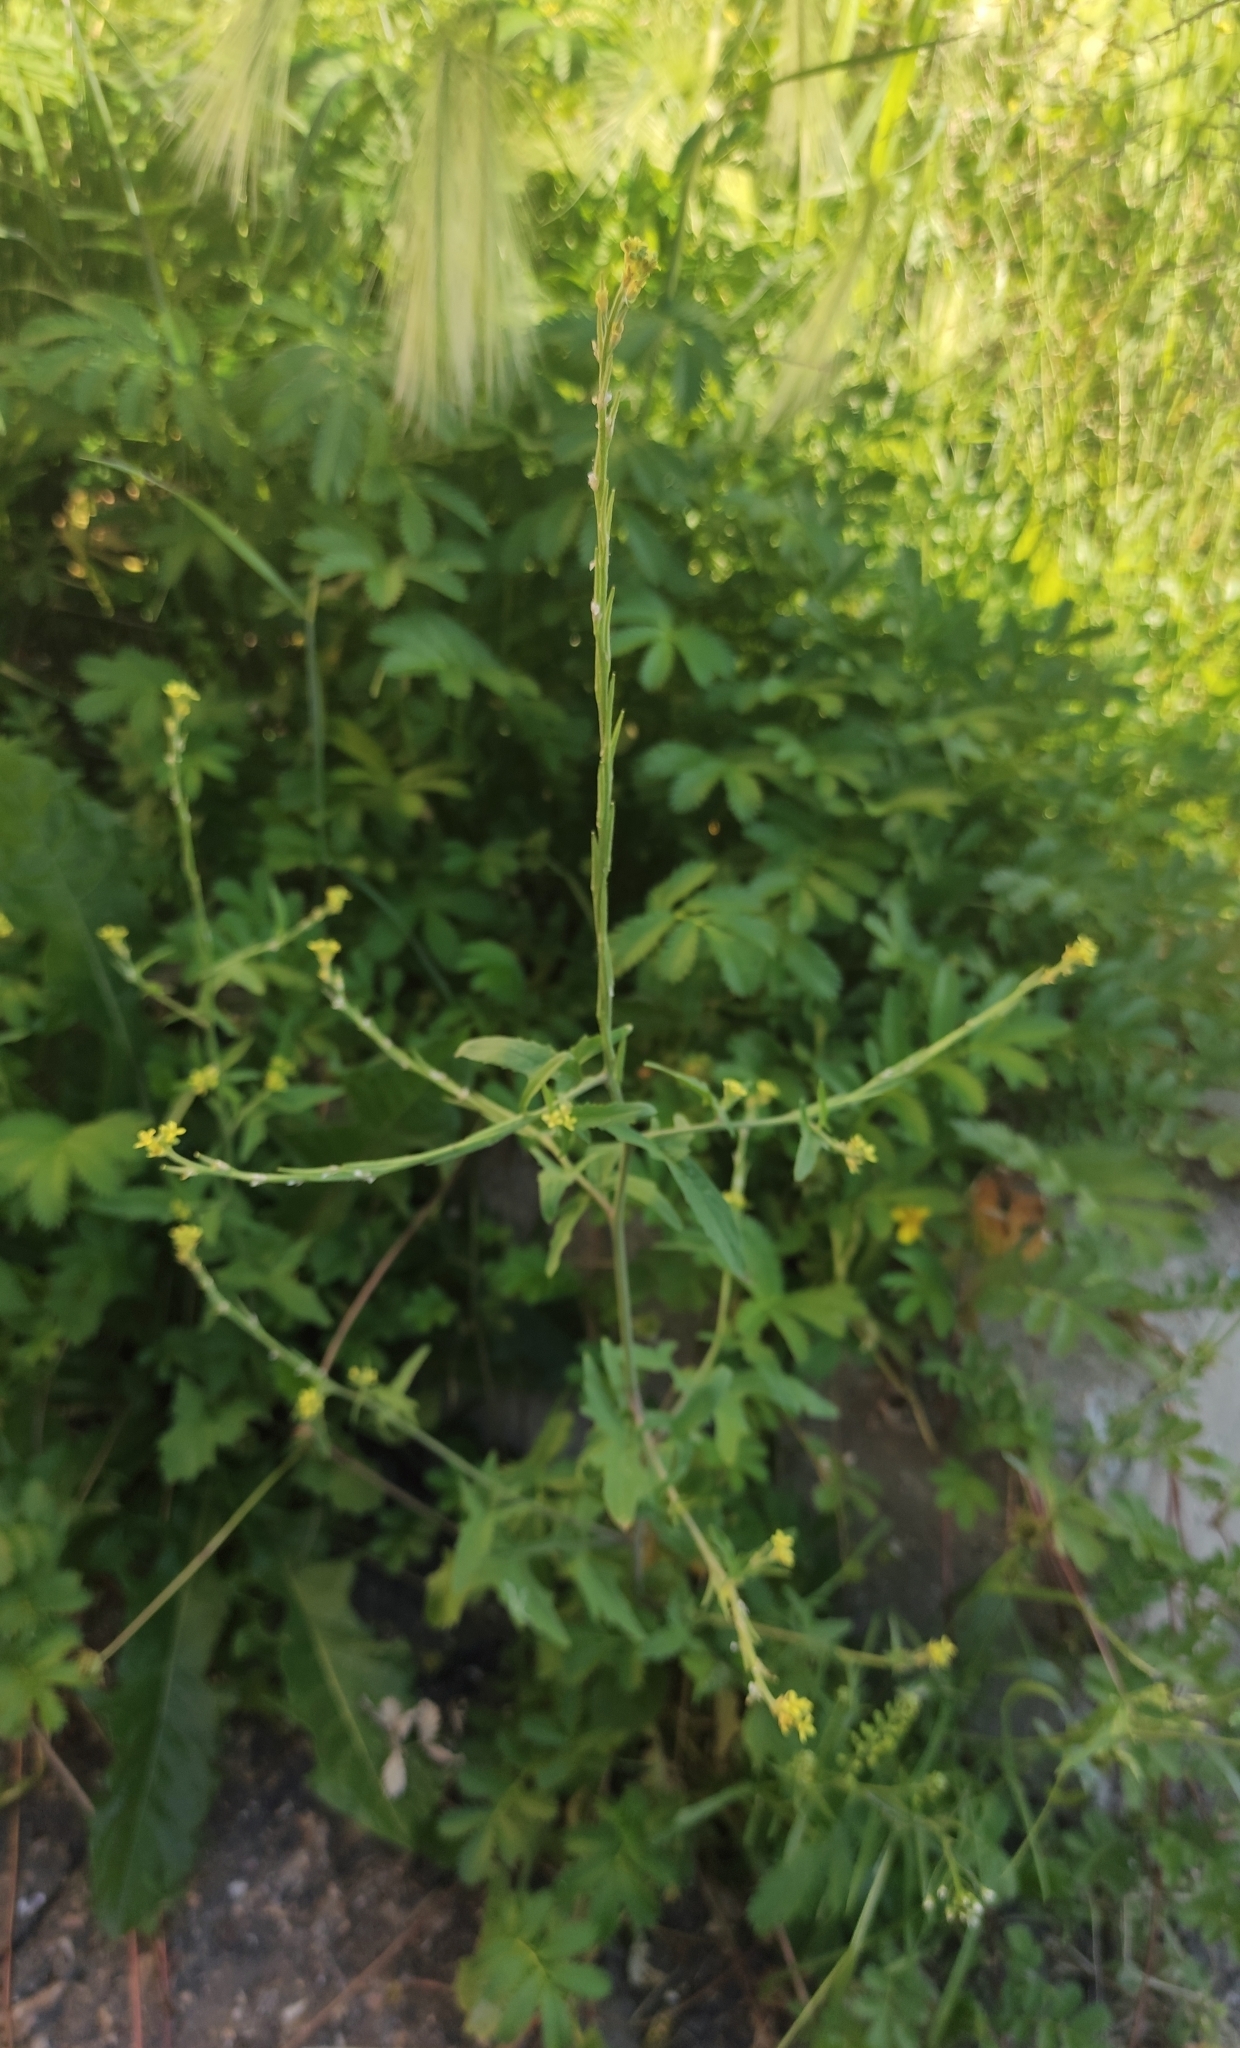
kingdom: Plantae
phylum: Tracheophyta
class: Magnoliopsida
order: Brassicales
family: Brassicaceae
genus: Sisymbrium
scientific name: Sisymbrium officinale
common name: Hedge mustard
